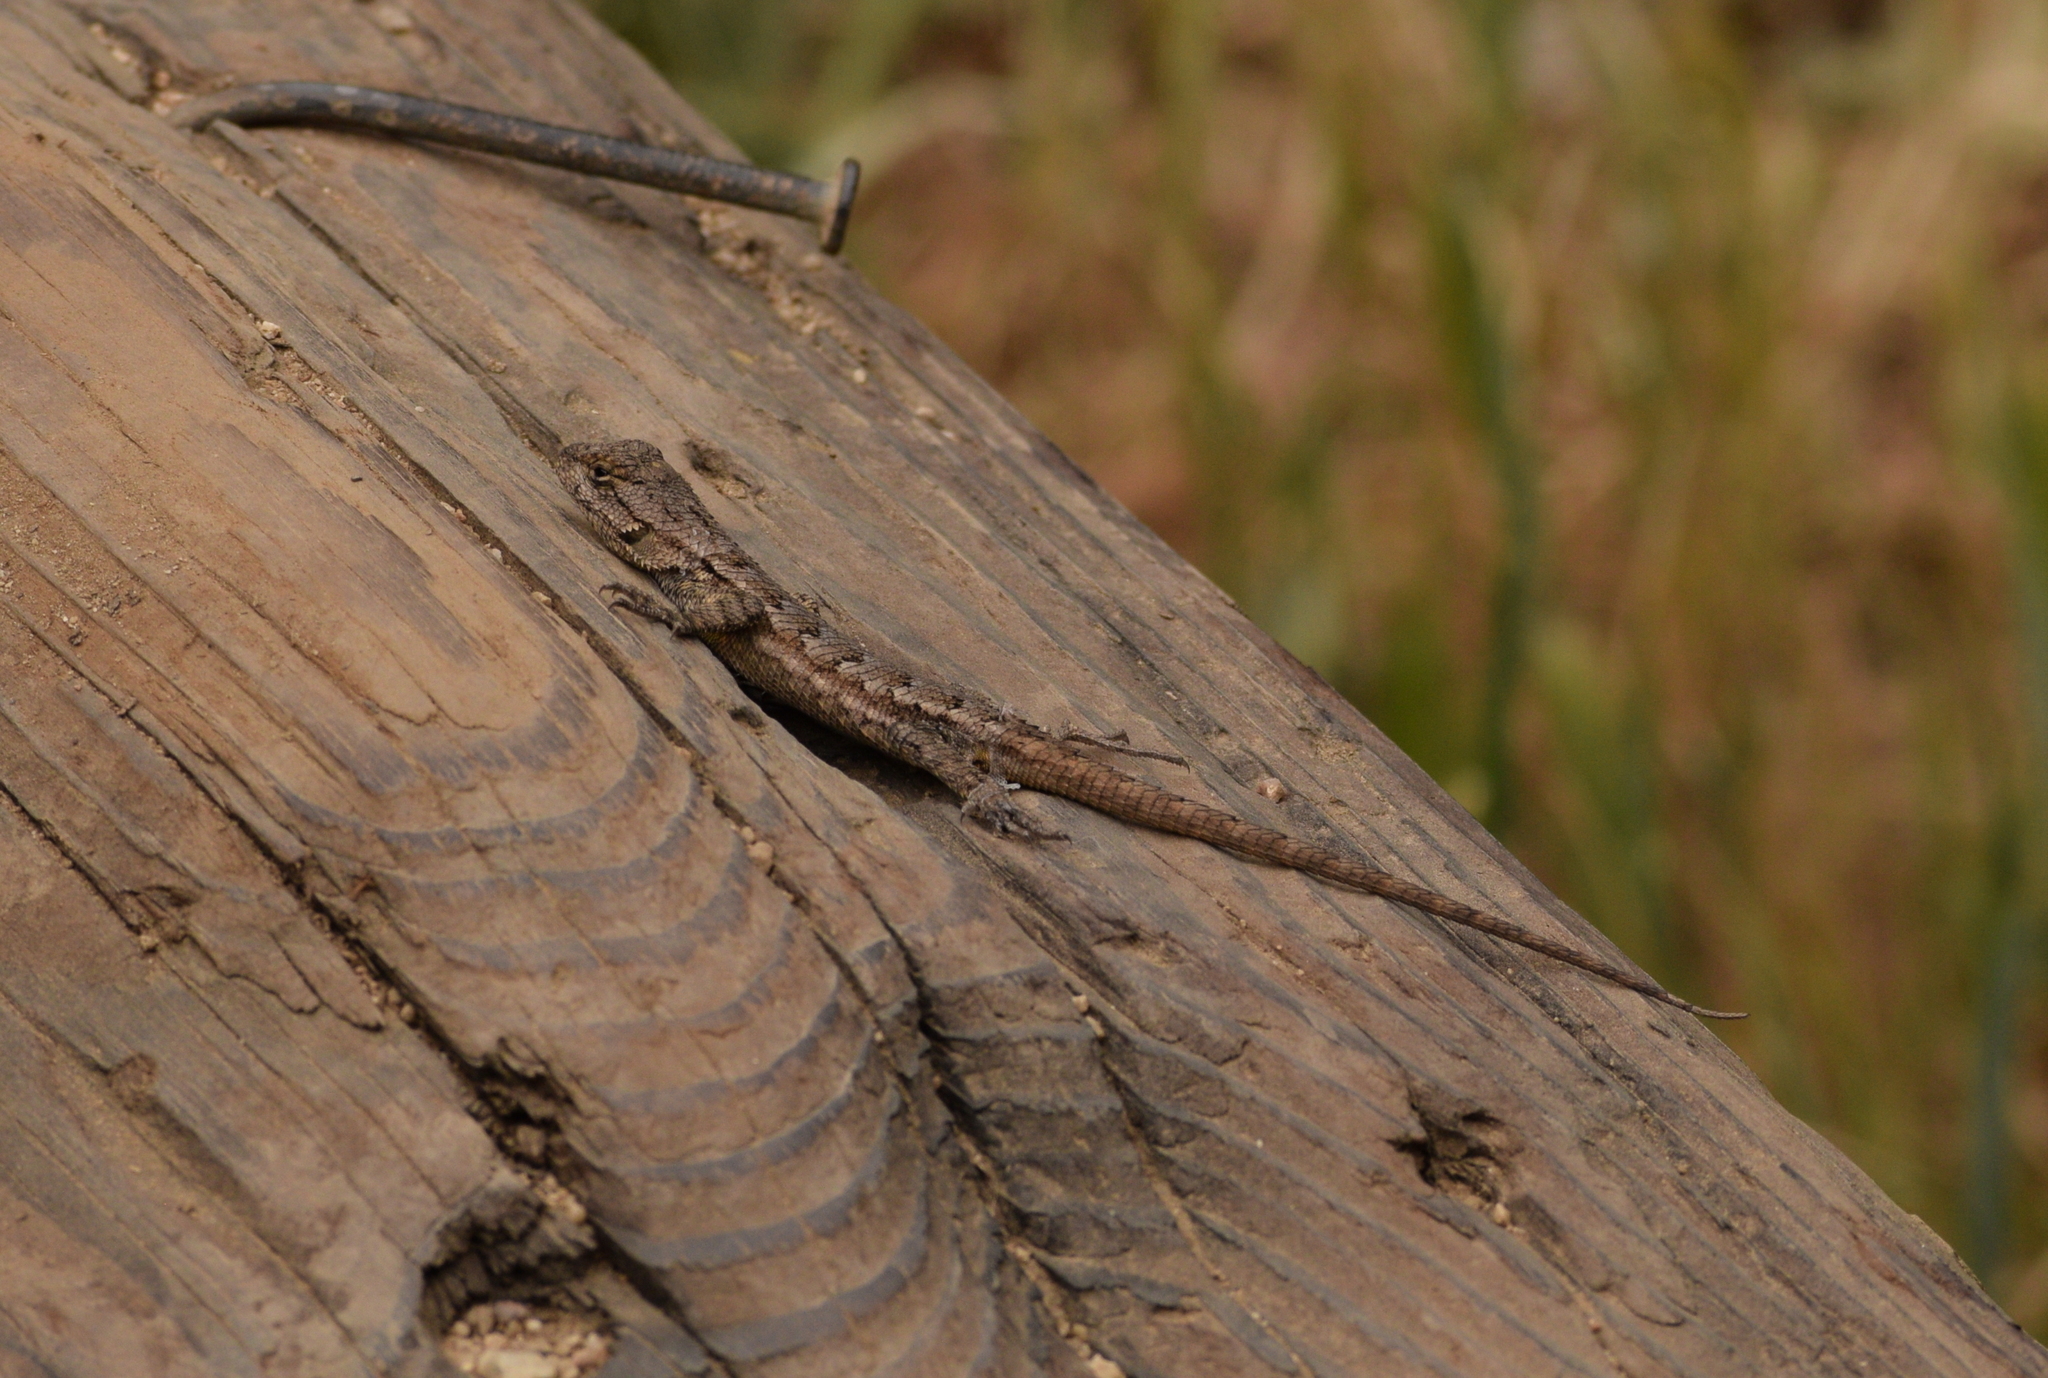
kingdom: Animalia
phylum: Chordata
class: Squamata
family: Phrynosomatidae
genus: Sceloporus
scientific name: Sceloporus occidentalis
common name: Western fence lizard
